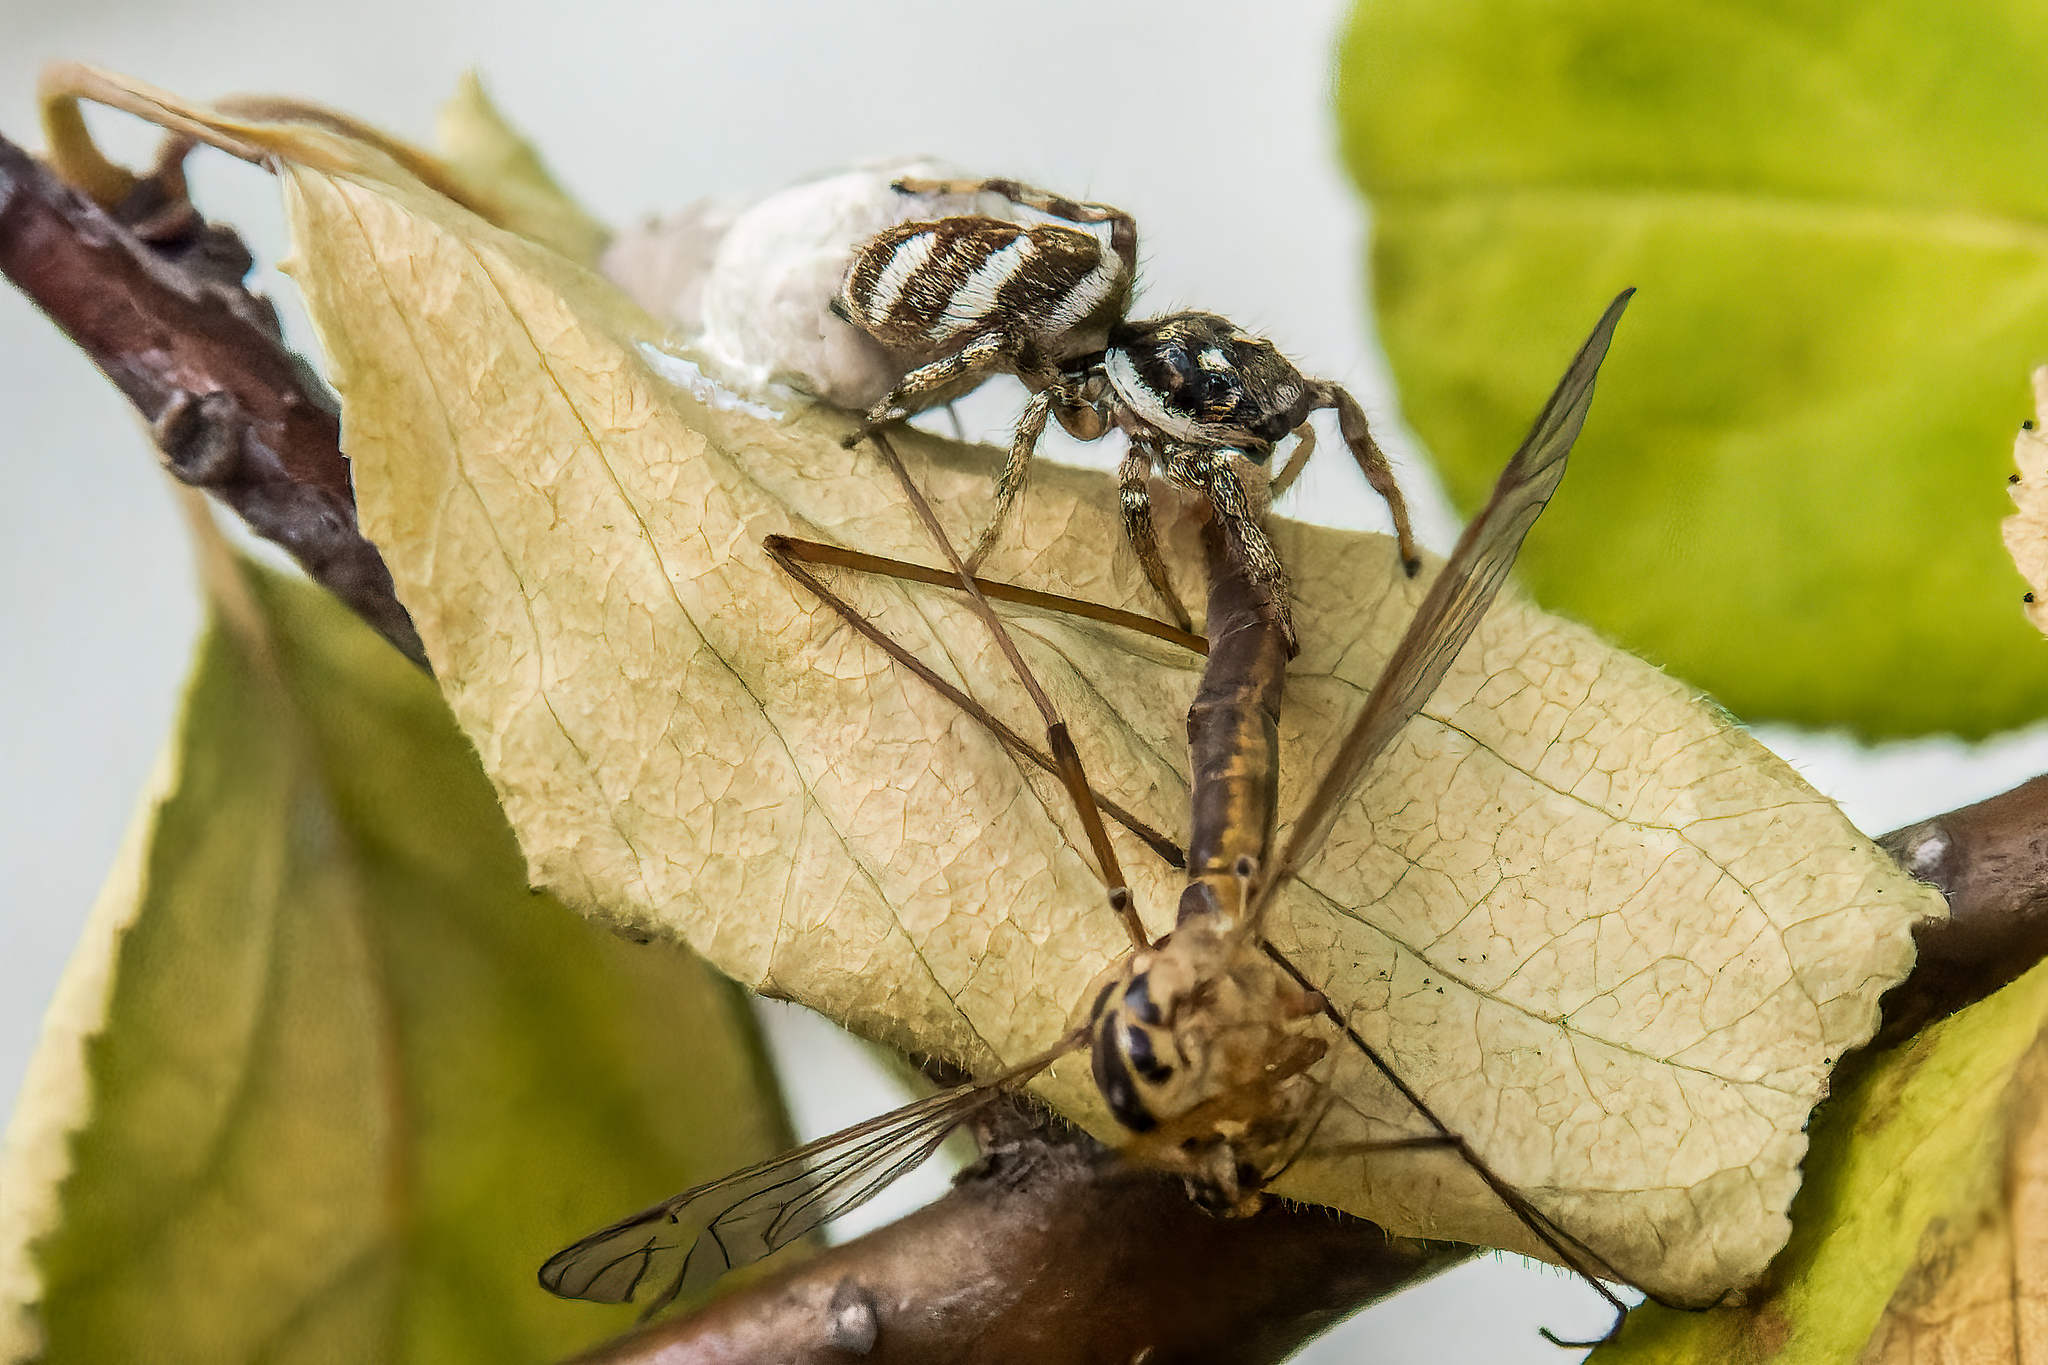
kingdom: Animalia
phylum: Arthropoda
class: Arachnida
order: Araneae
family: Salticidae
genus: Salticus
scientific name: Salticus scenicus
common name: Zebra jumper
